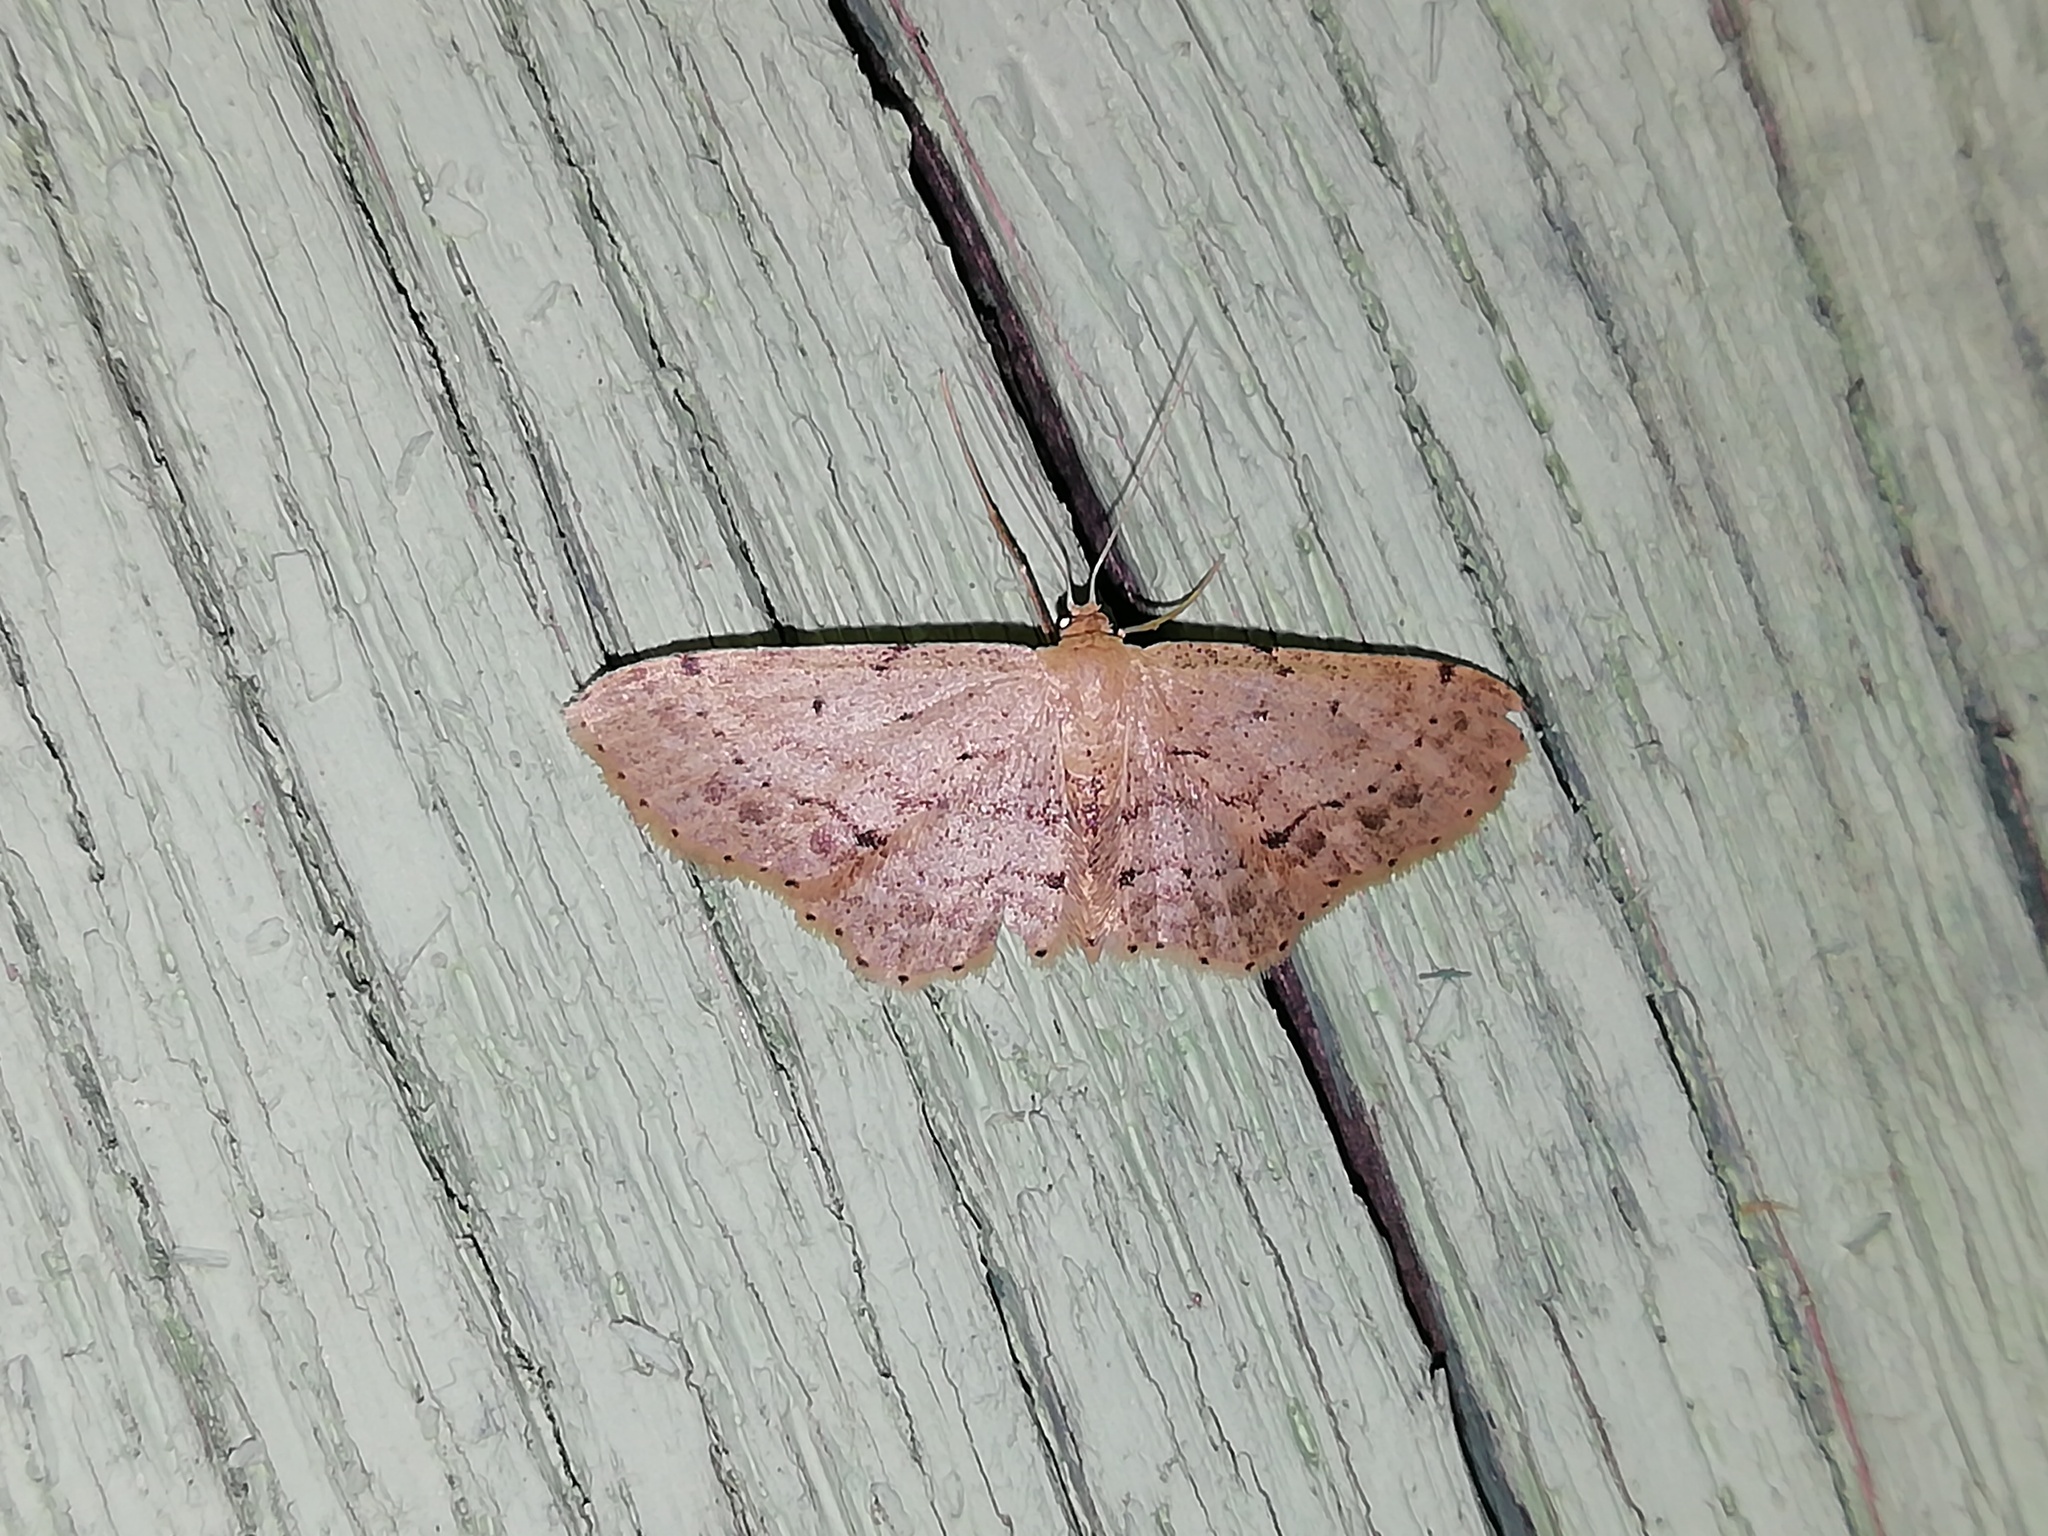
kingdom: Animalia
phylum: Arthropoda
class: Insecta
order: Lepidoptera
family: Geometridae
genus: Idaea
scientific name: Idaea dimidiata
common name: Single-dotted wave
